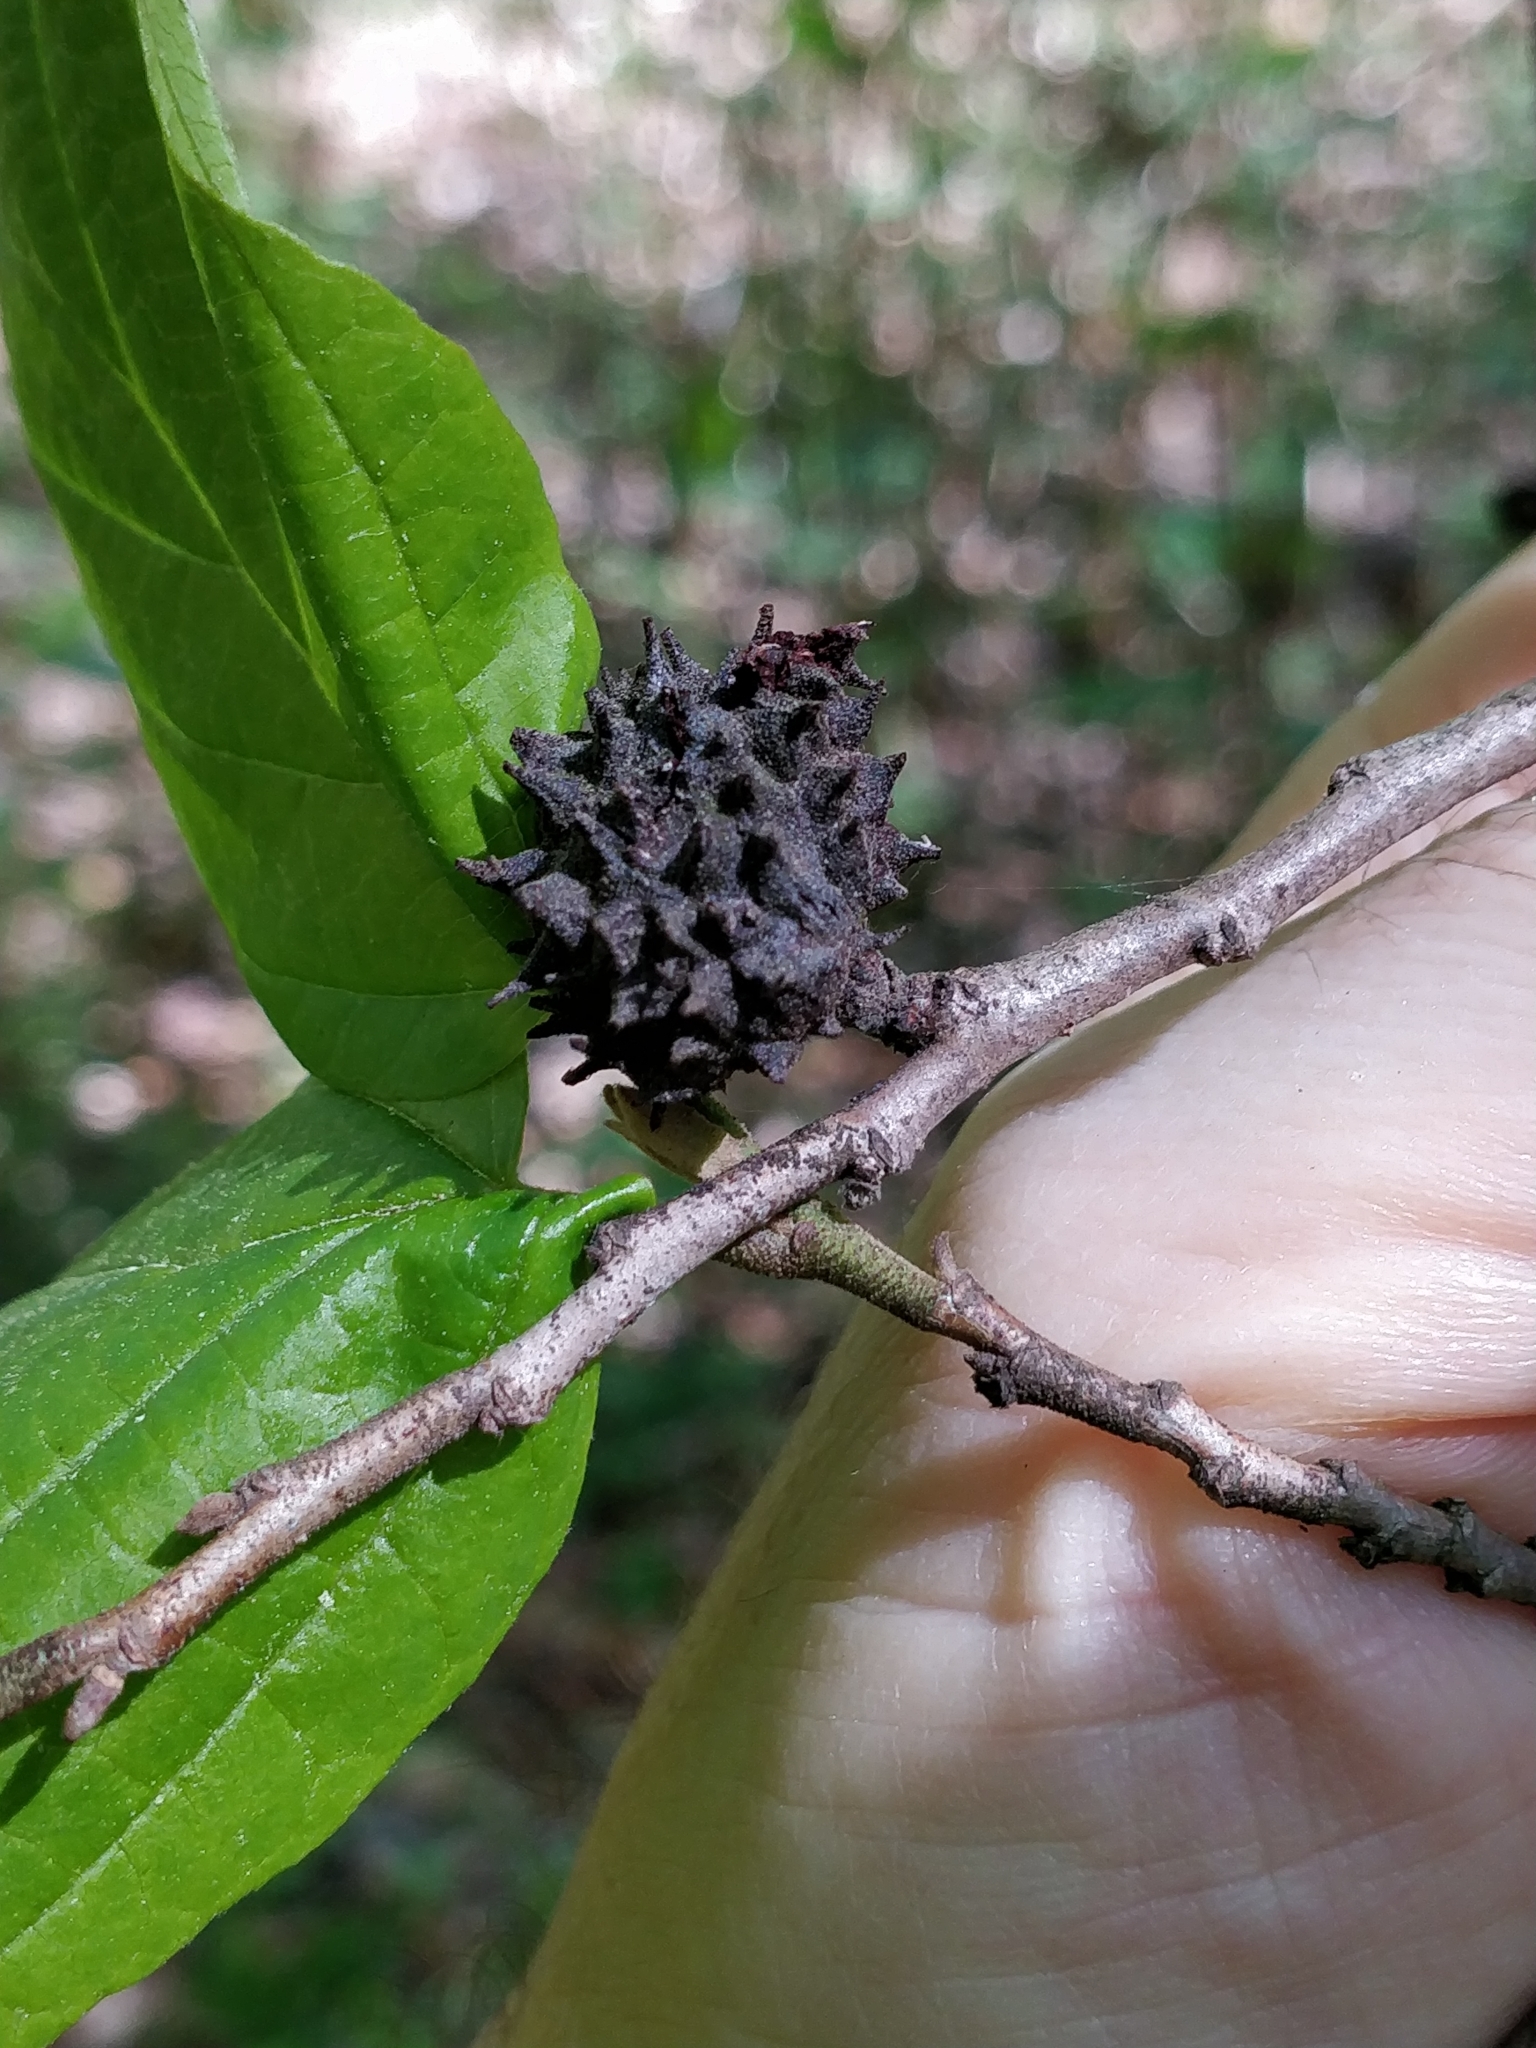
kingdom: Animalia
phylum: Arthropoda
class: Insecta
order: Hemiptera
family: Aphididae
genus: Hamamelistes
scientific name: Hamamelistes spinosus
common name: Witch hazel gall aphid
